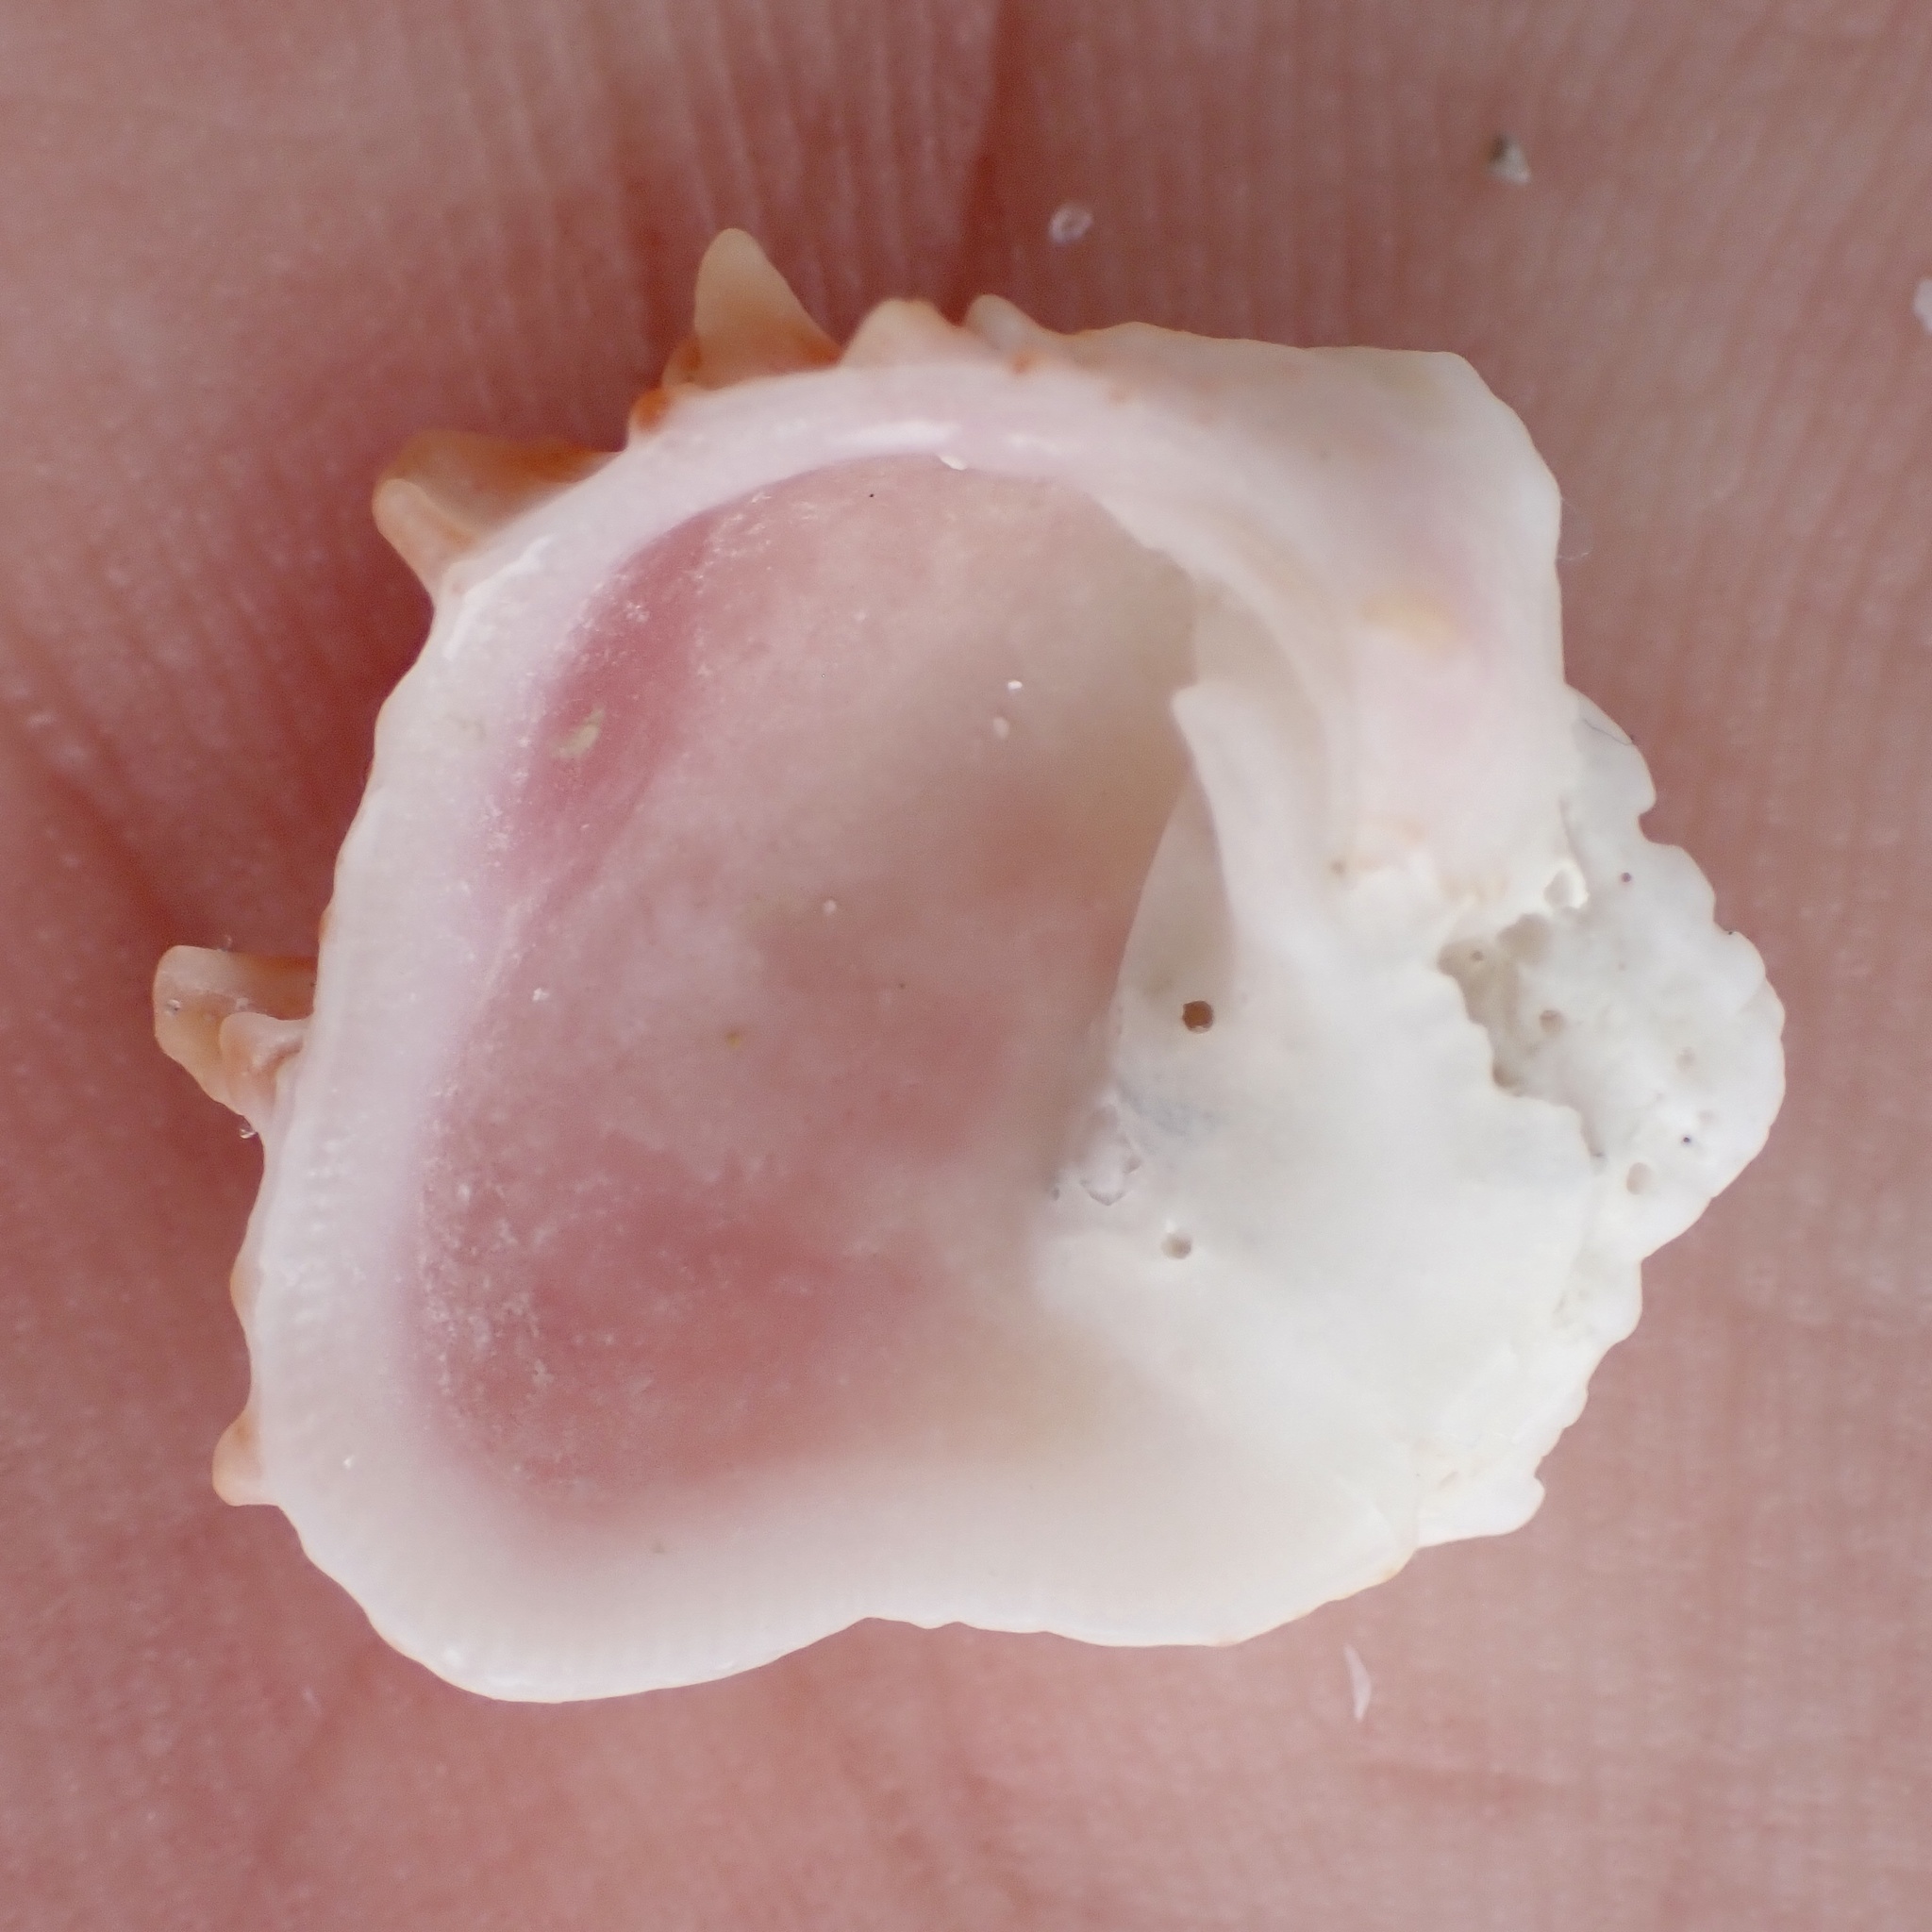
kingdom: Animalia
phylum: Mollusca
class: Bivalvia
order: Venerida
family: Chamidae
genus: Chama
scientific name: Chama congregata
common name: Corrugate jewelbox
